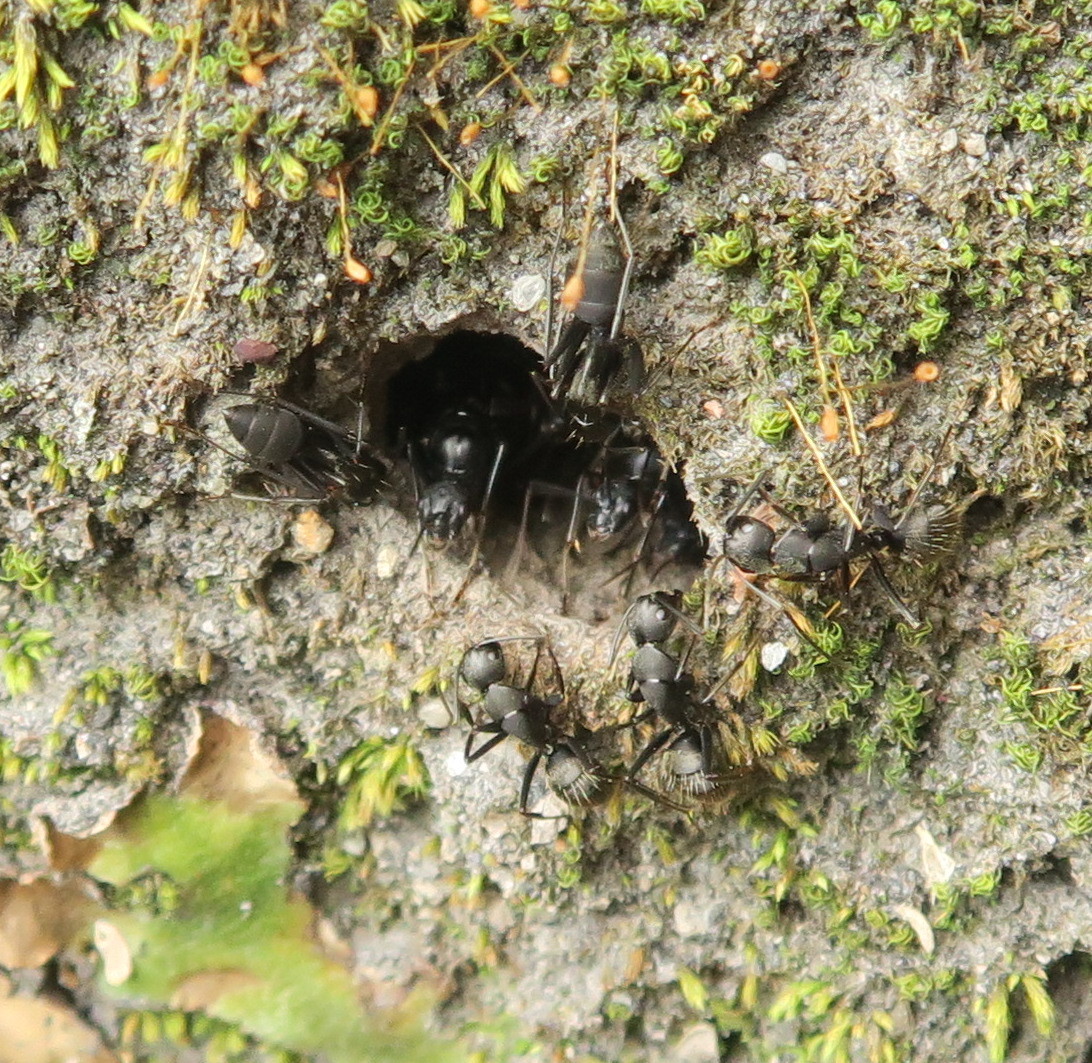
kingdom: Animalia
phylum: Arthropoda
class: Insecta
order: Hymenoptera
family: Formicidae
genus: Camponotus
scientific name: Camponotus japonicus
